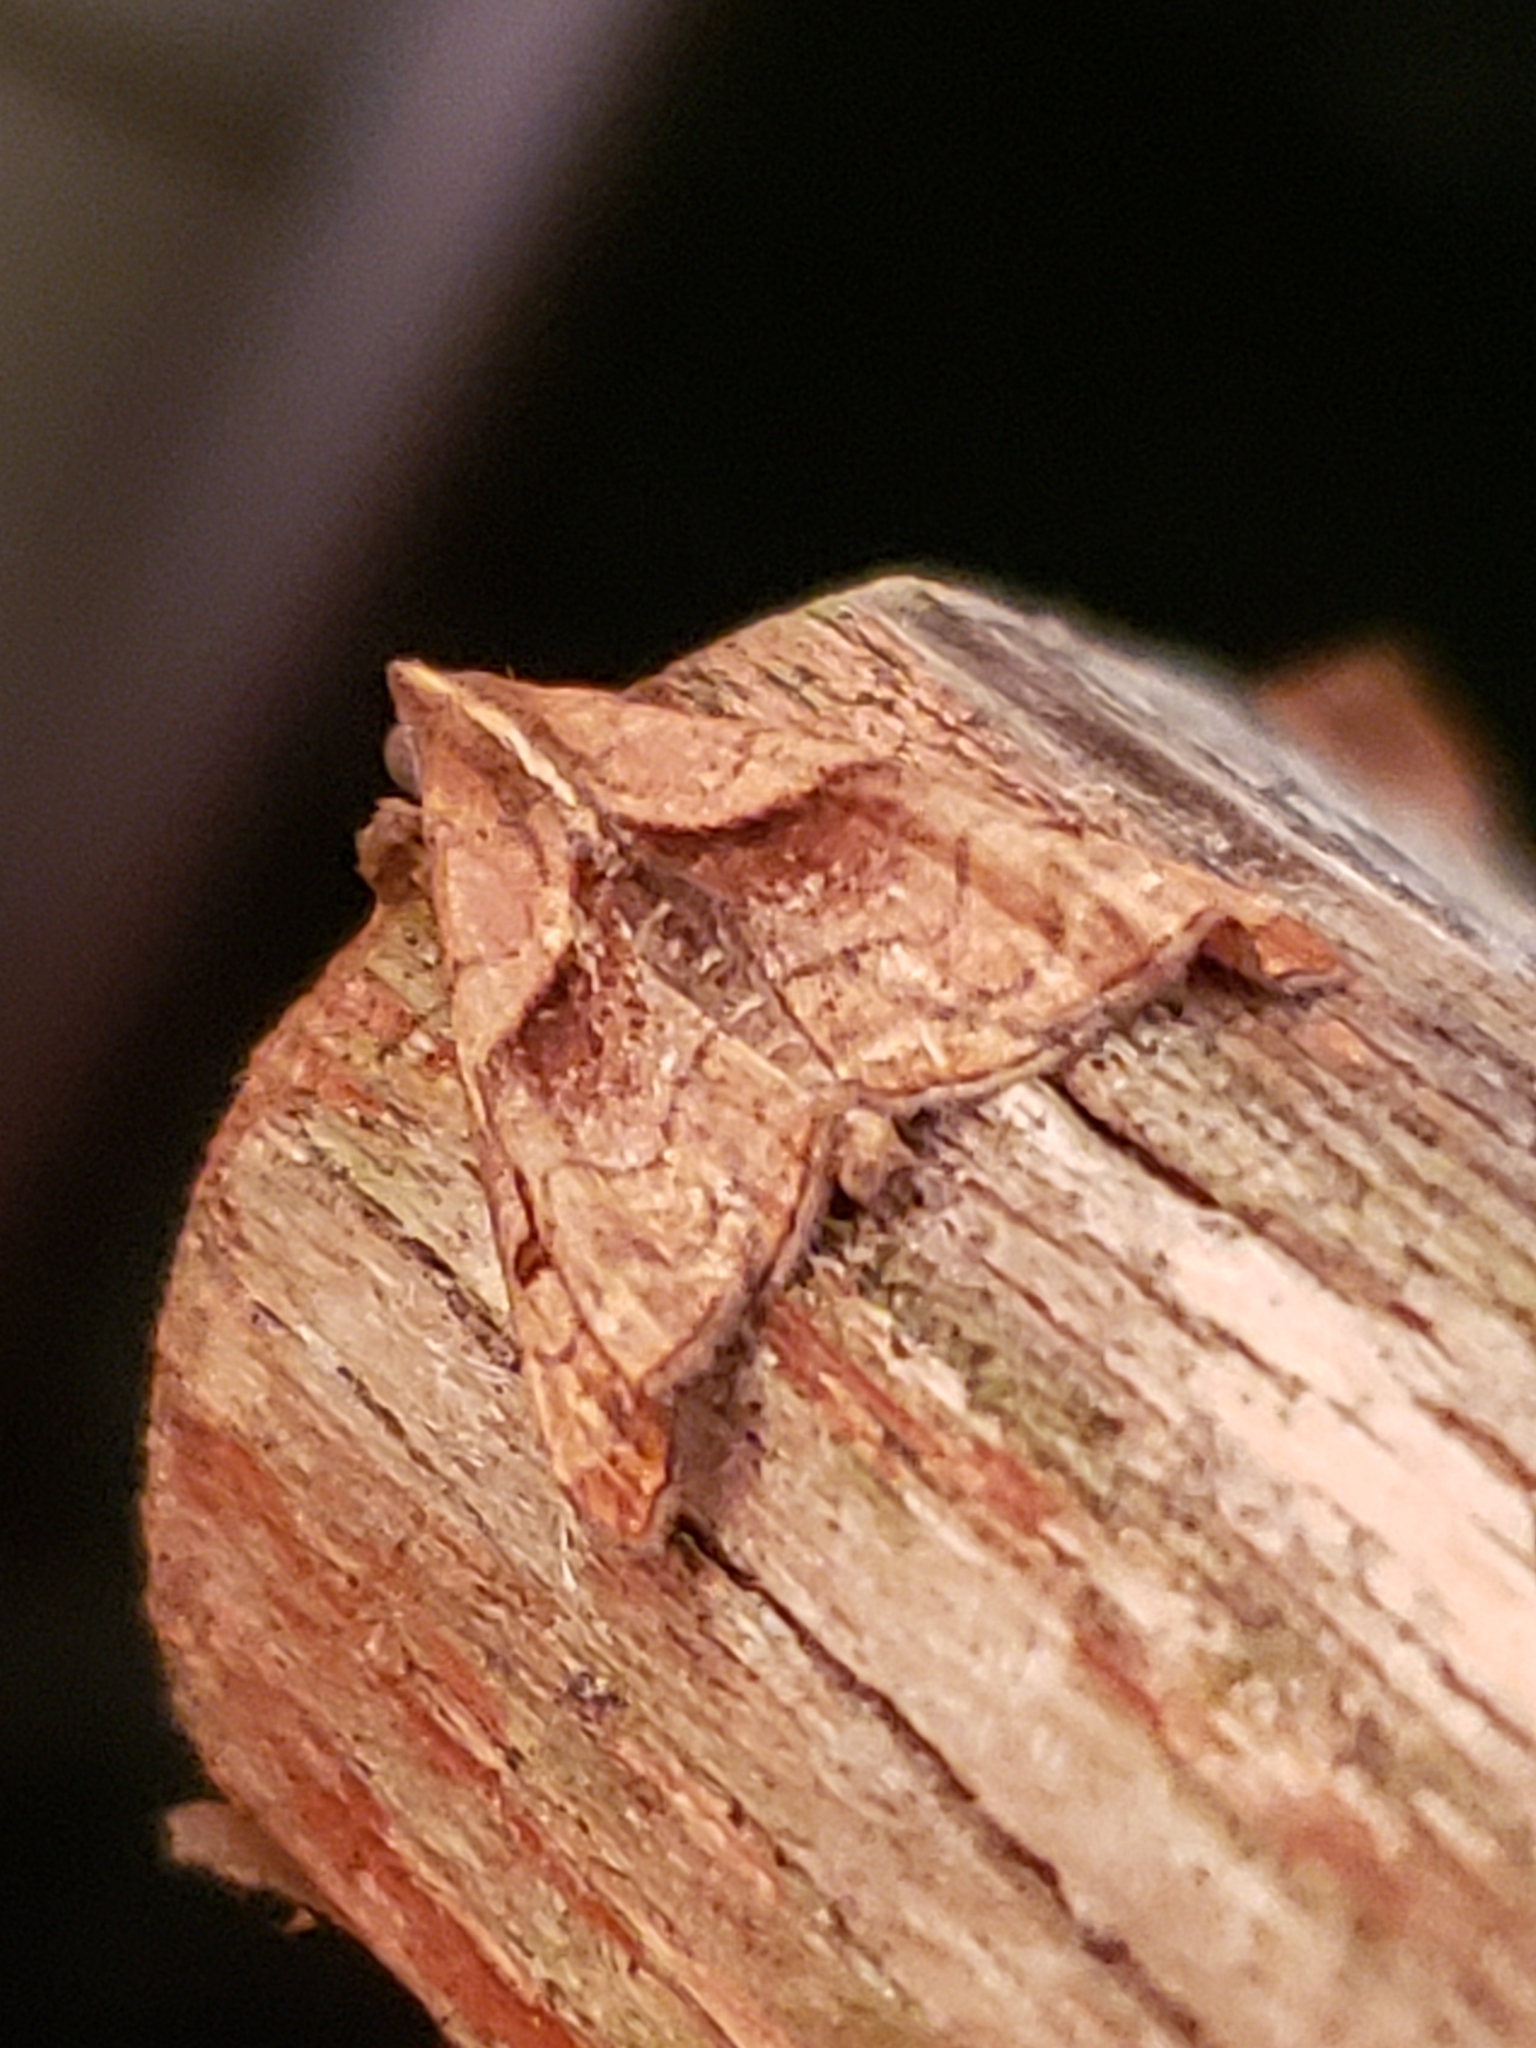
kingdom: Animalia
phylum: Arthropoda
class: Insecta
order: Lepidoptera
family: Erebidae
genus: Palthis
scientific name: Palthis angulalis
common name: Dark-spotted palthis moth
